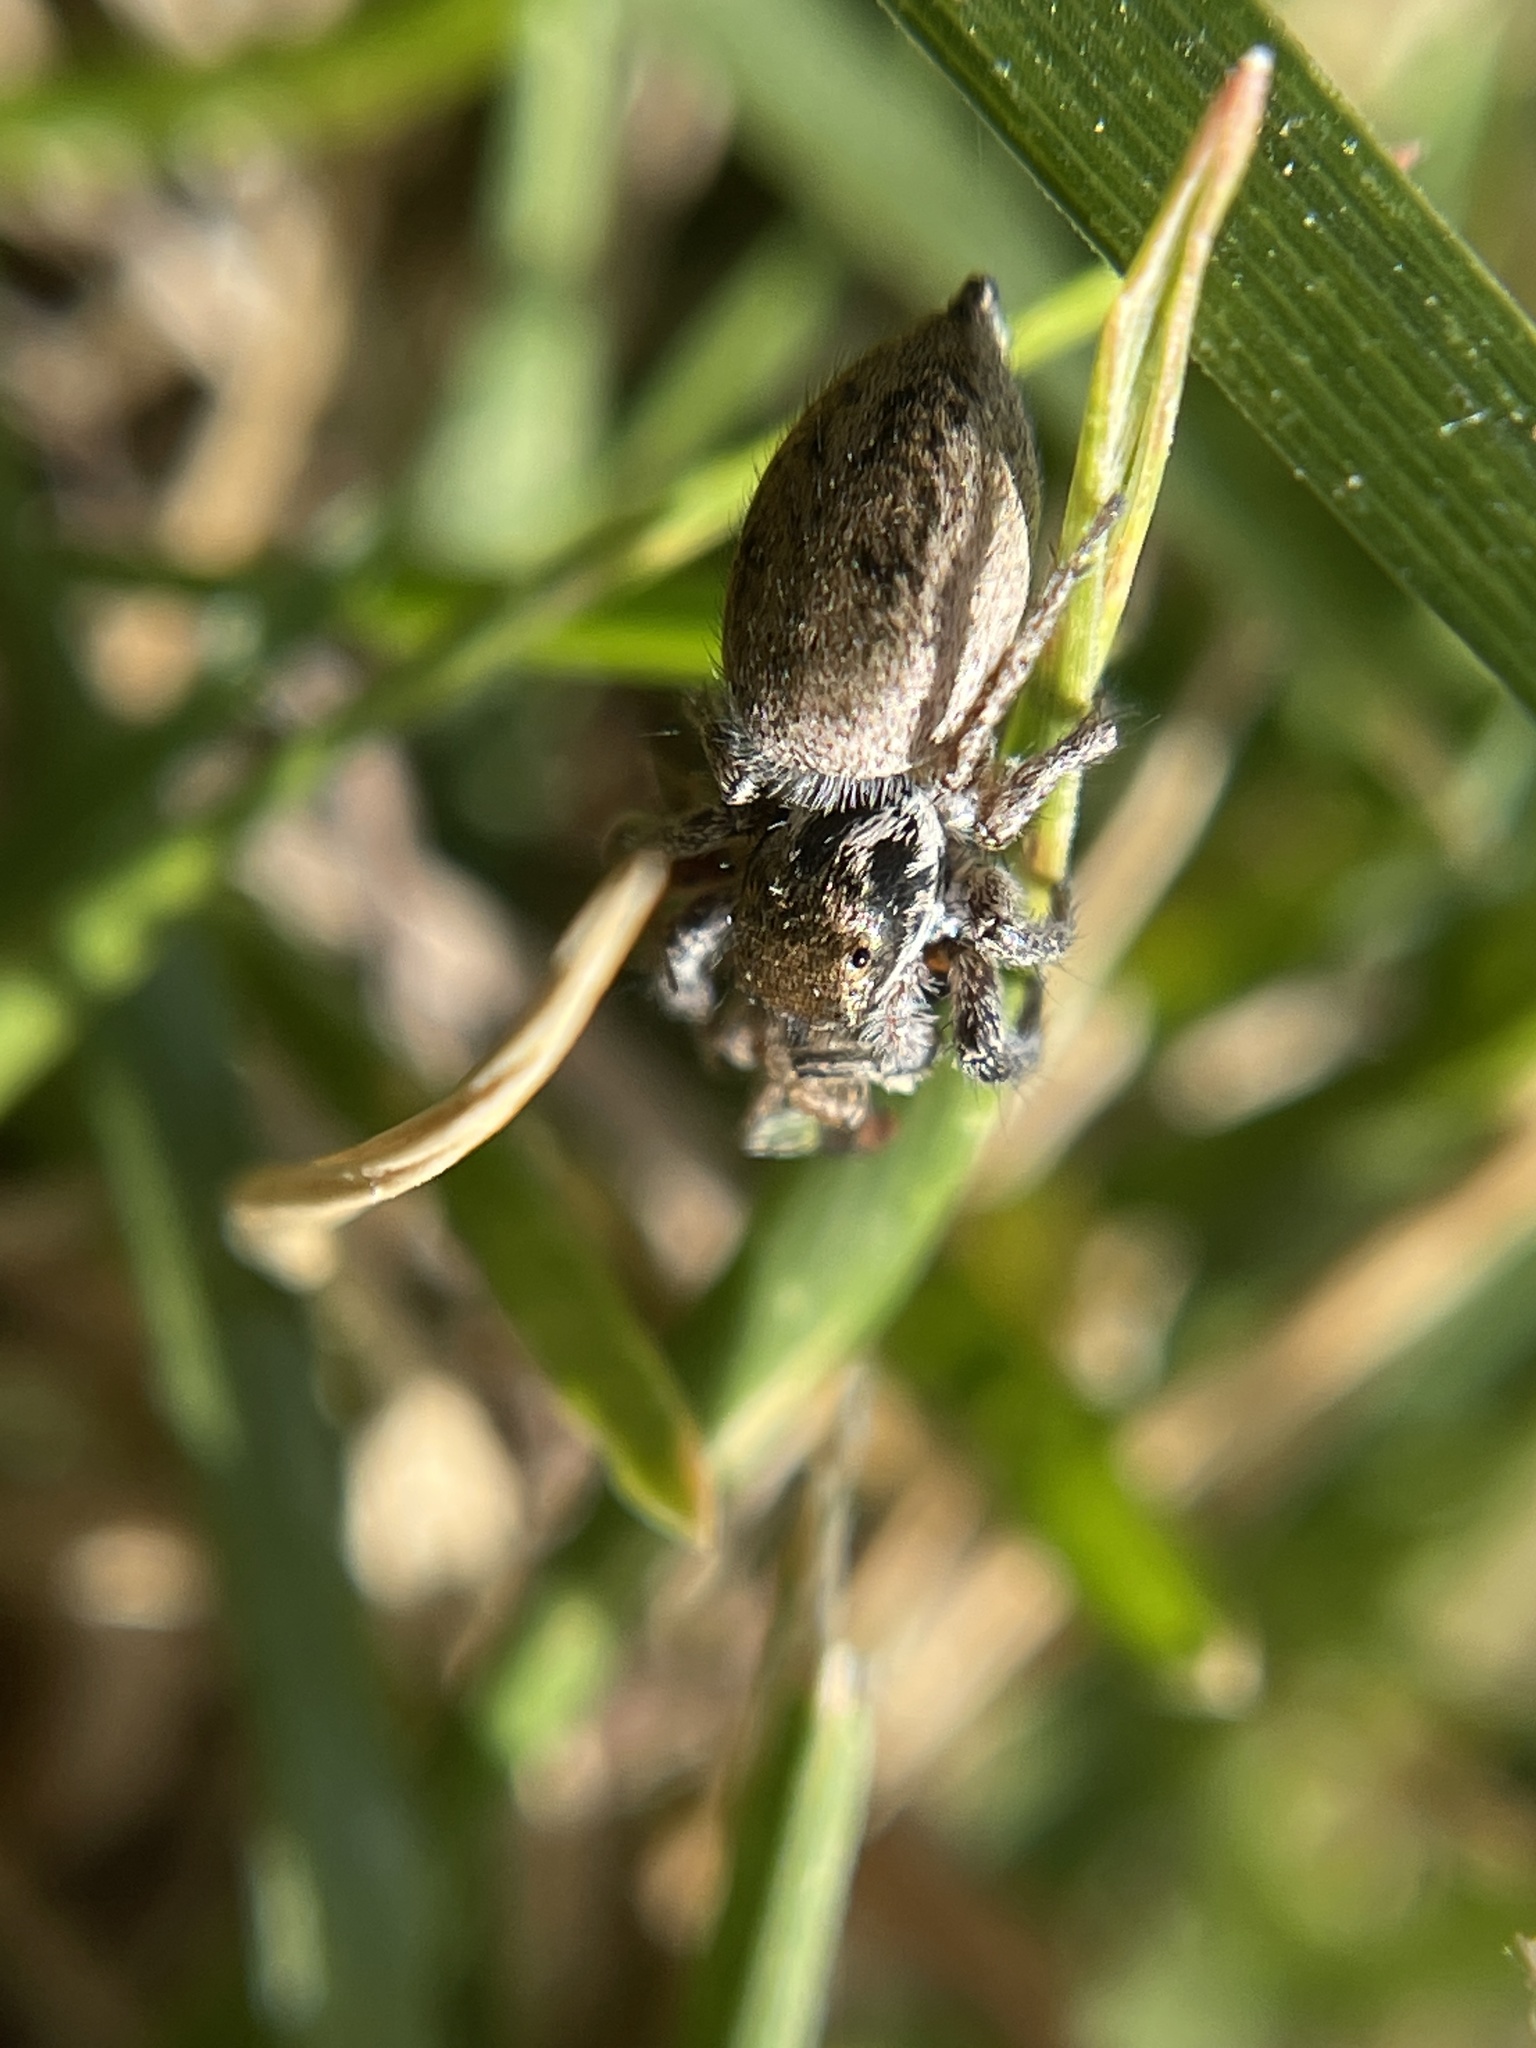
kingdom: Animalia
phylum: Arthropoda
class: Arachnida
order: Araneae
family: Salticidae
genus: Habronattus
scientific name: Habronattus pyrrithrix
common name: Jumping spider
